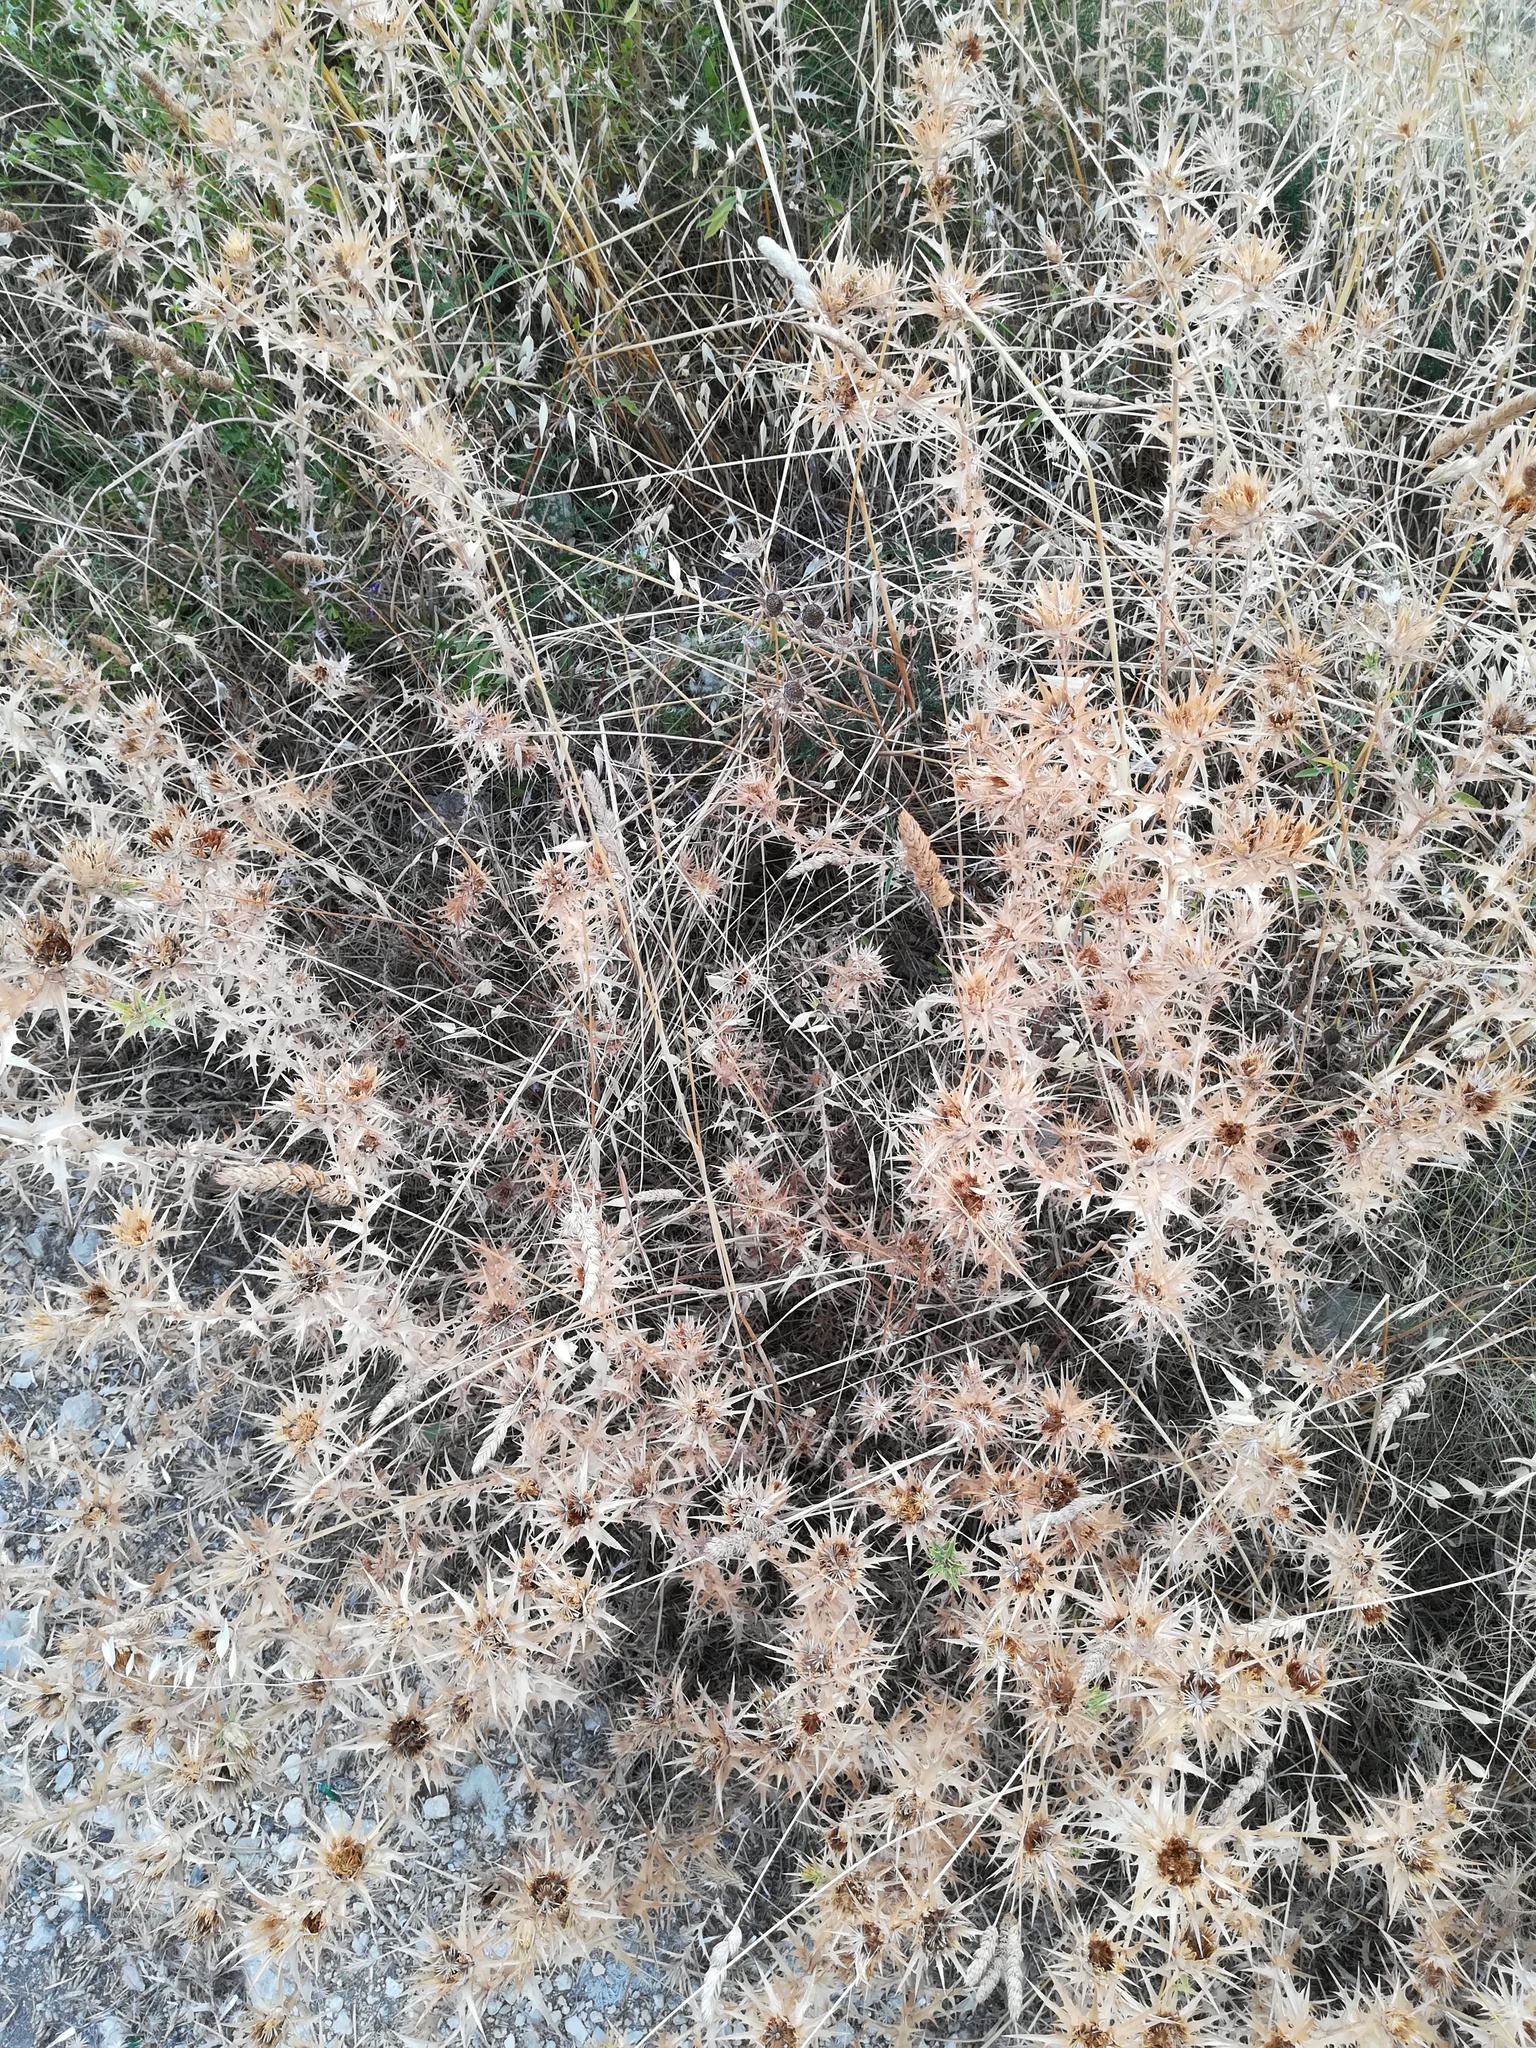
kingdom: Plantae
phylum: Tracheophyta
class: Magnoliopsida
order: Asterales
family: Asteraceae
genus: Carlina
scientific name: Carlina corymbosa
